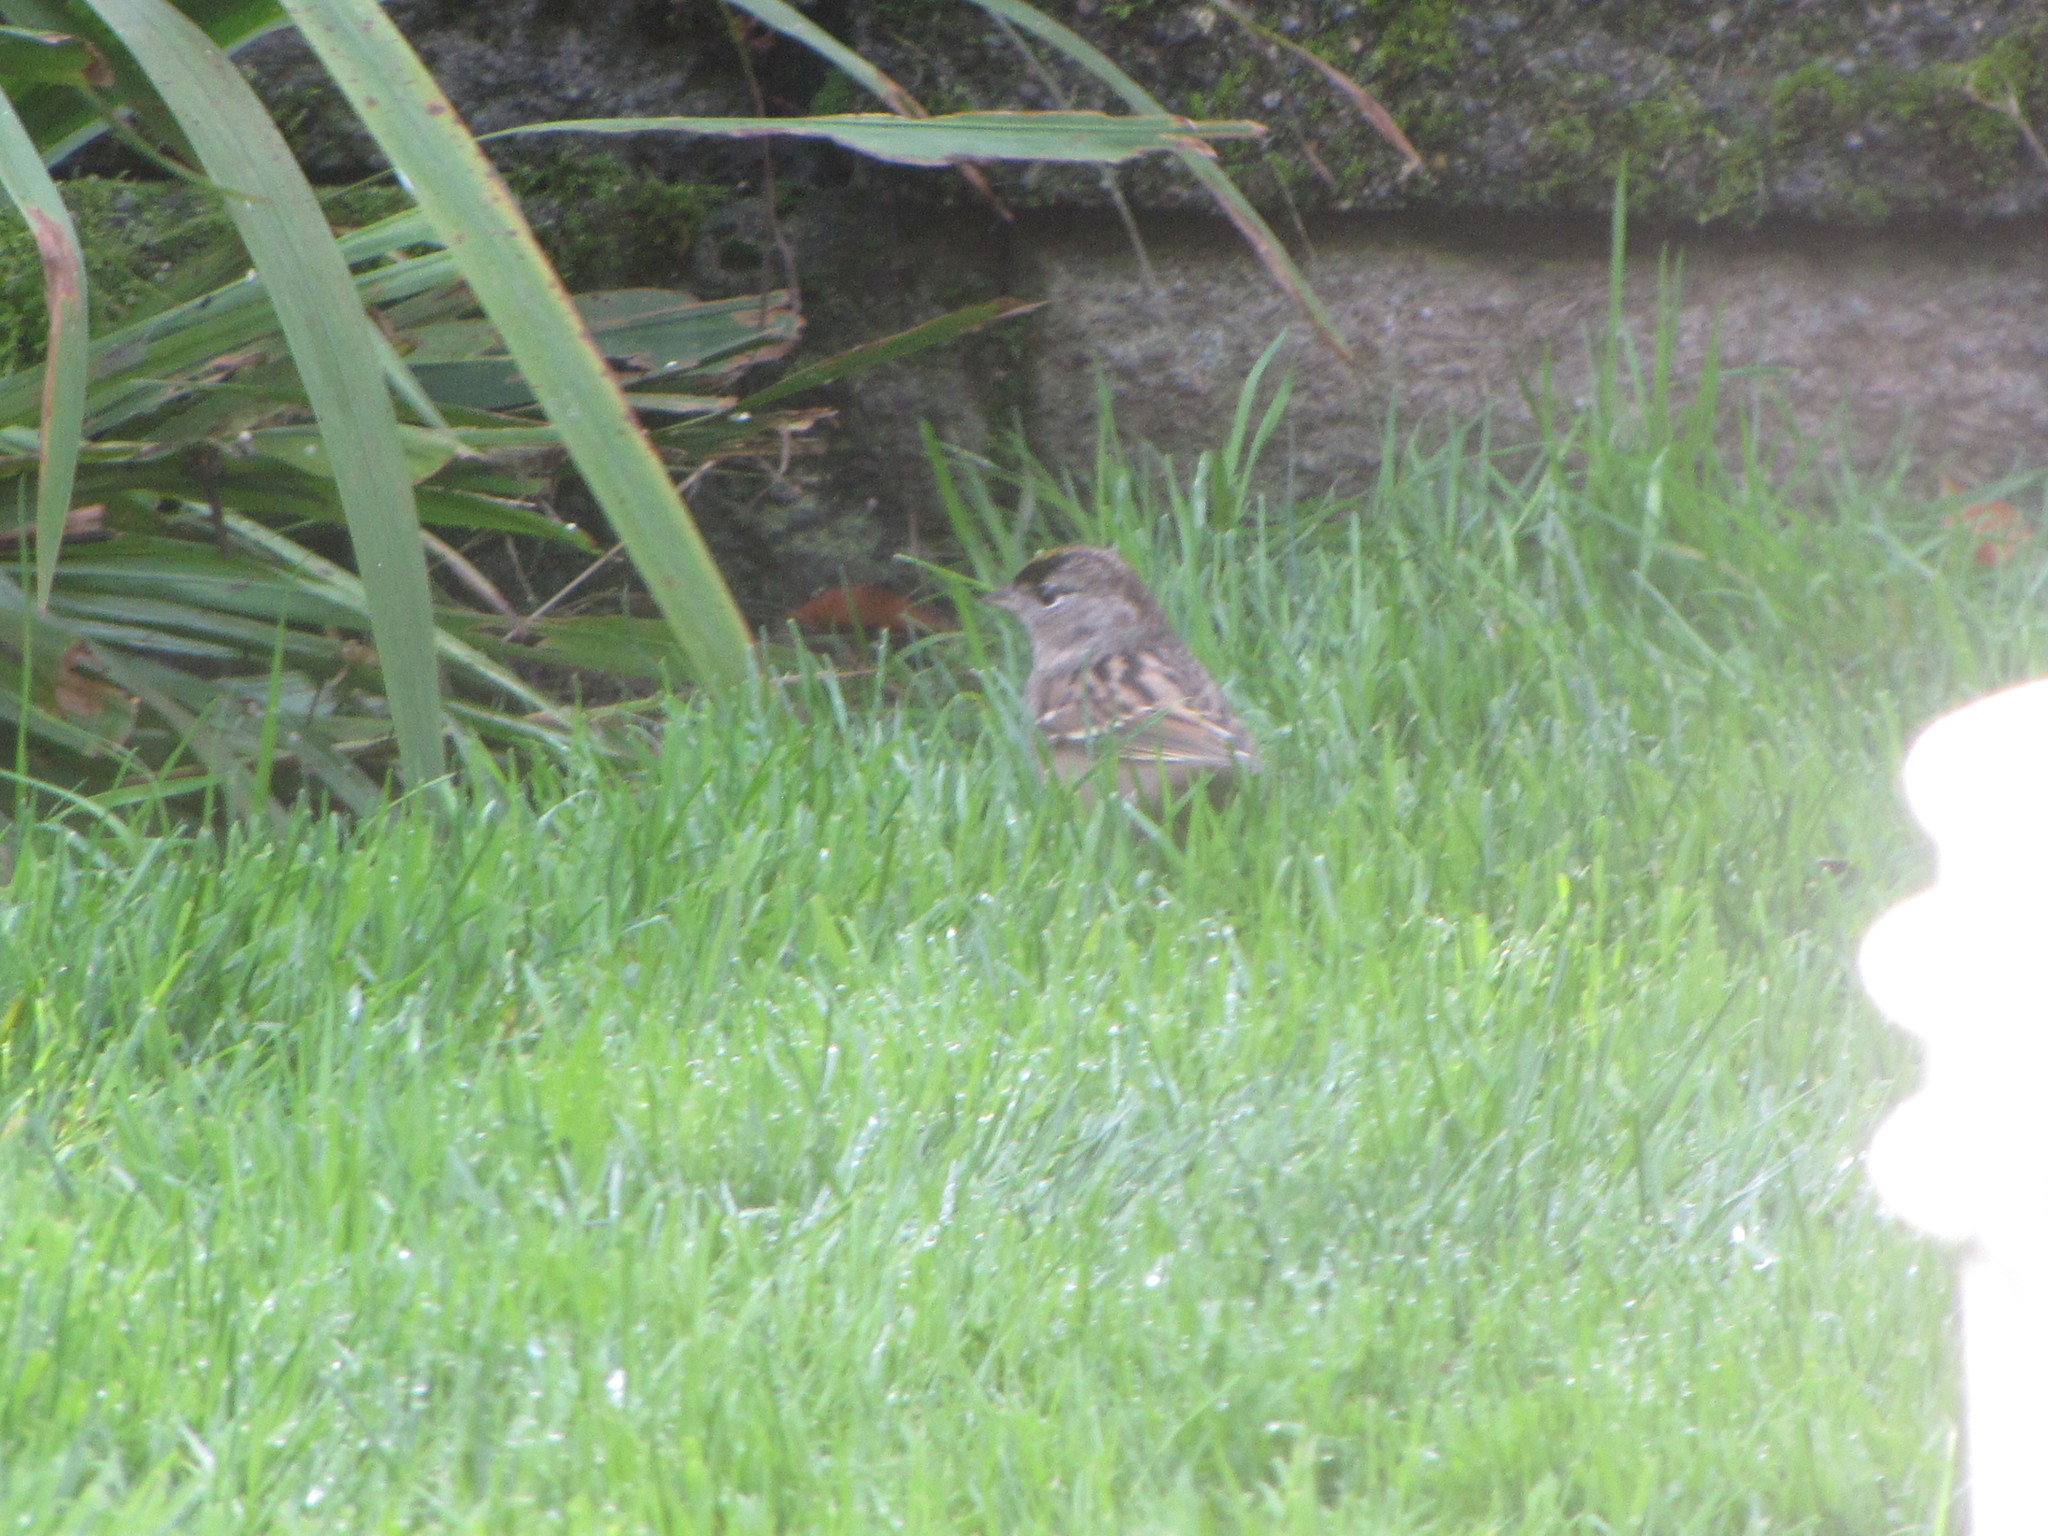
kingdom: Animalia
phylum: Chordata
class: Aves
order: Passeriformes
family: Passerellidae
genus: Zonotrichia
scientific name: Zonotrichia atricapilla
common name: Golden-crowned sparrow
